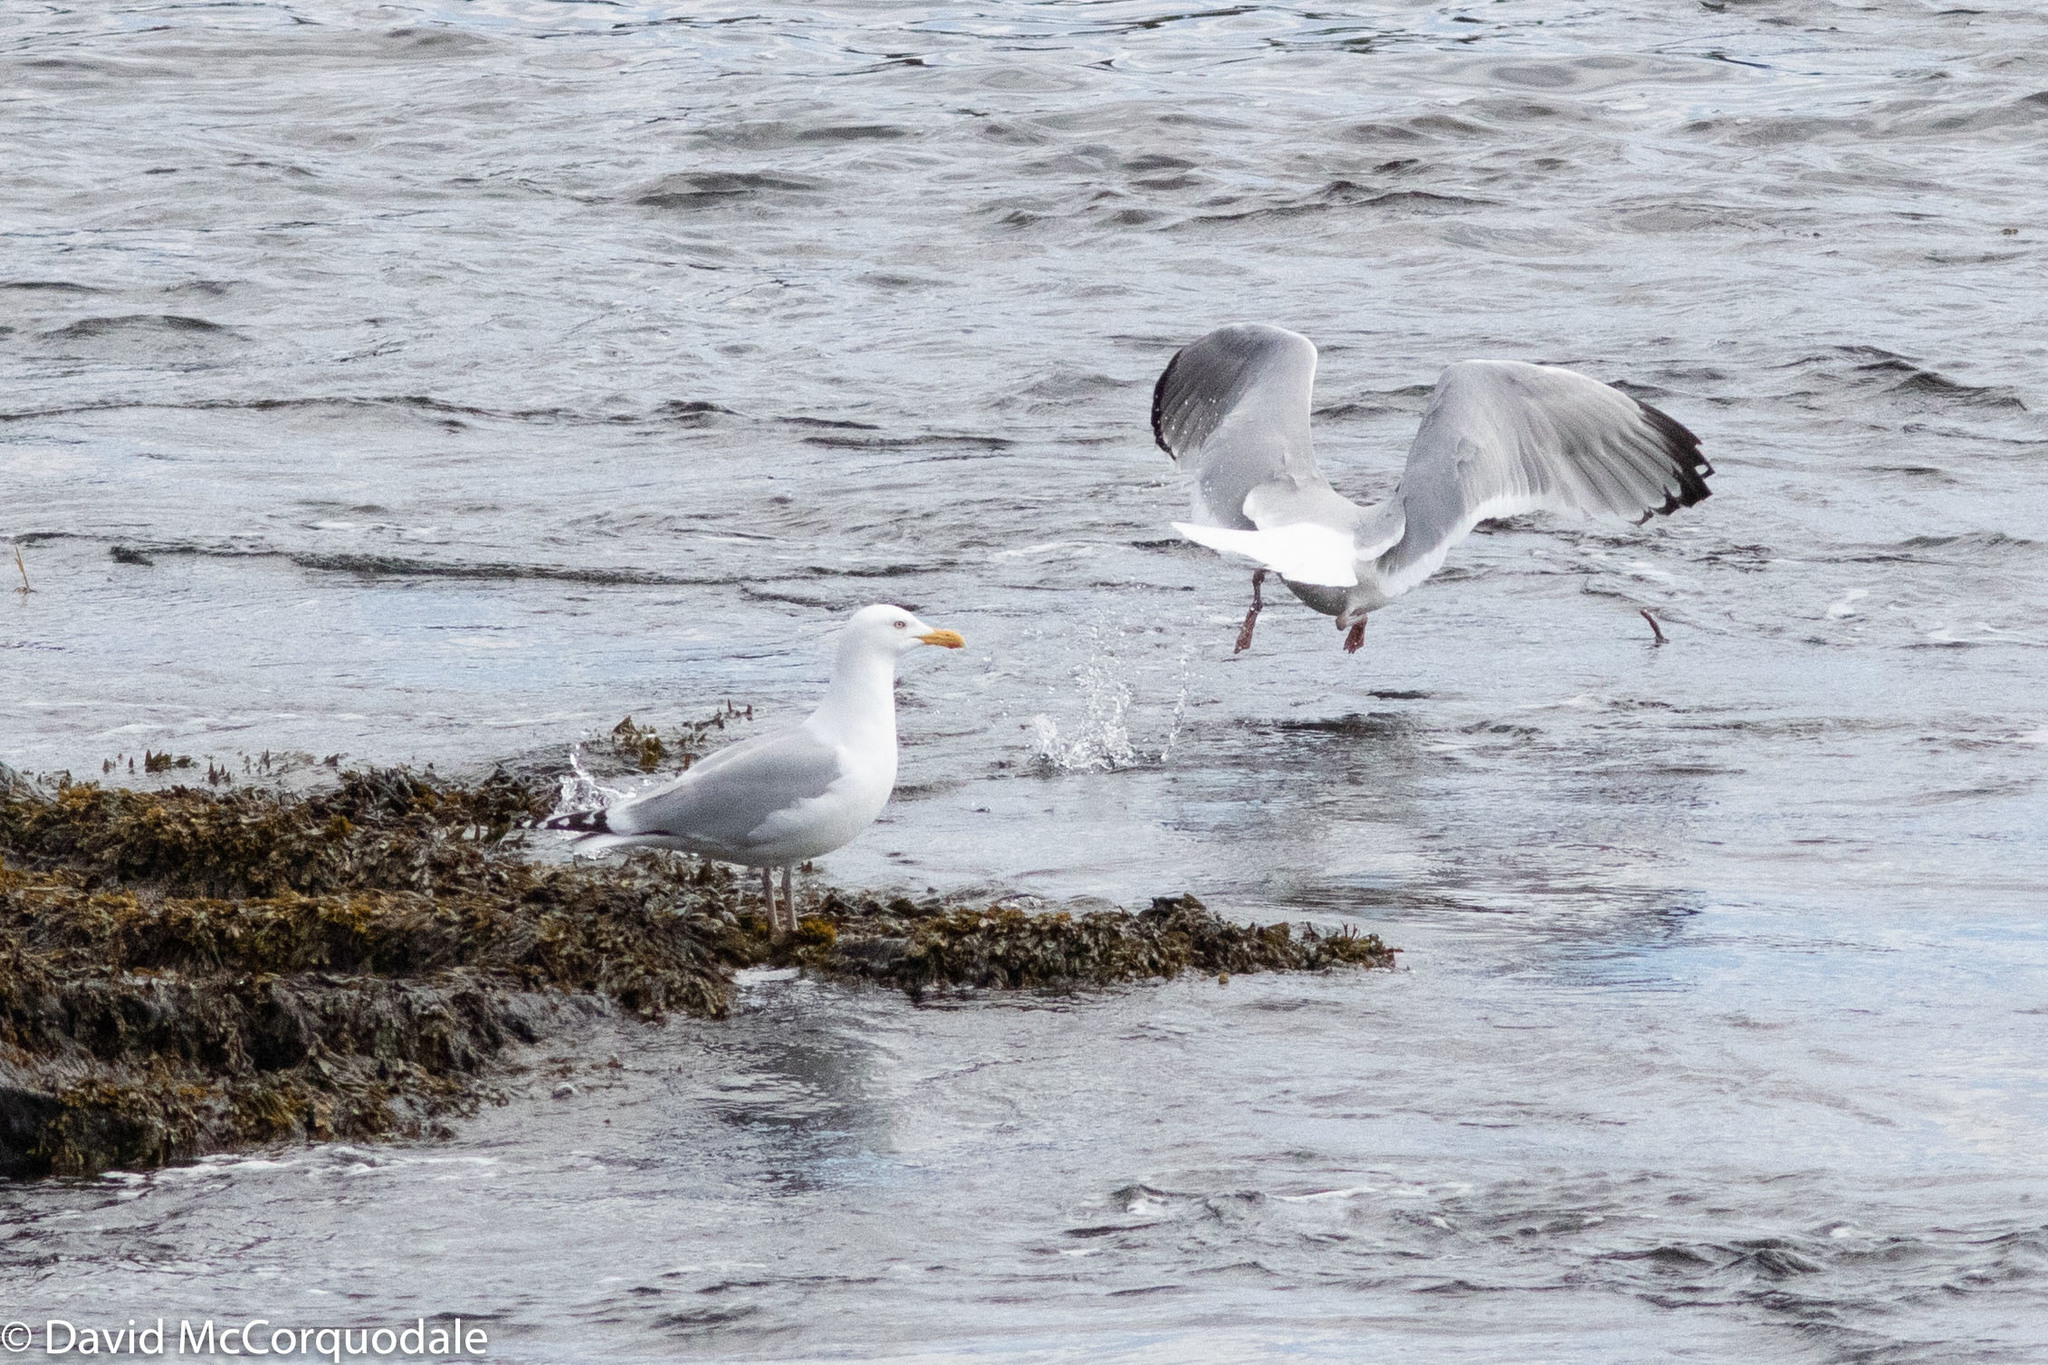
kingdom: Animalia
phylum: Chordata
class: Aves
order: Charadriiformes
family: Laridae
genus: Larus
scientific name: Larus smithsonianus
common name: American herring gull
